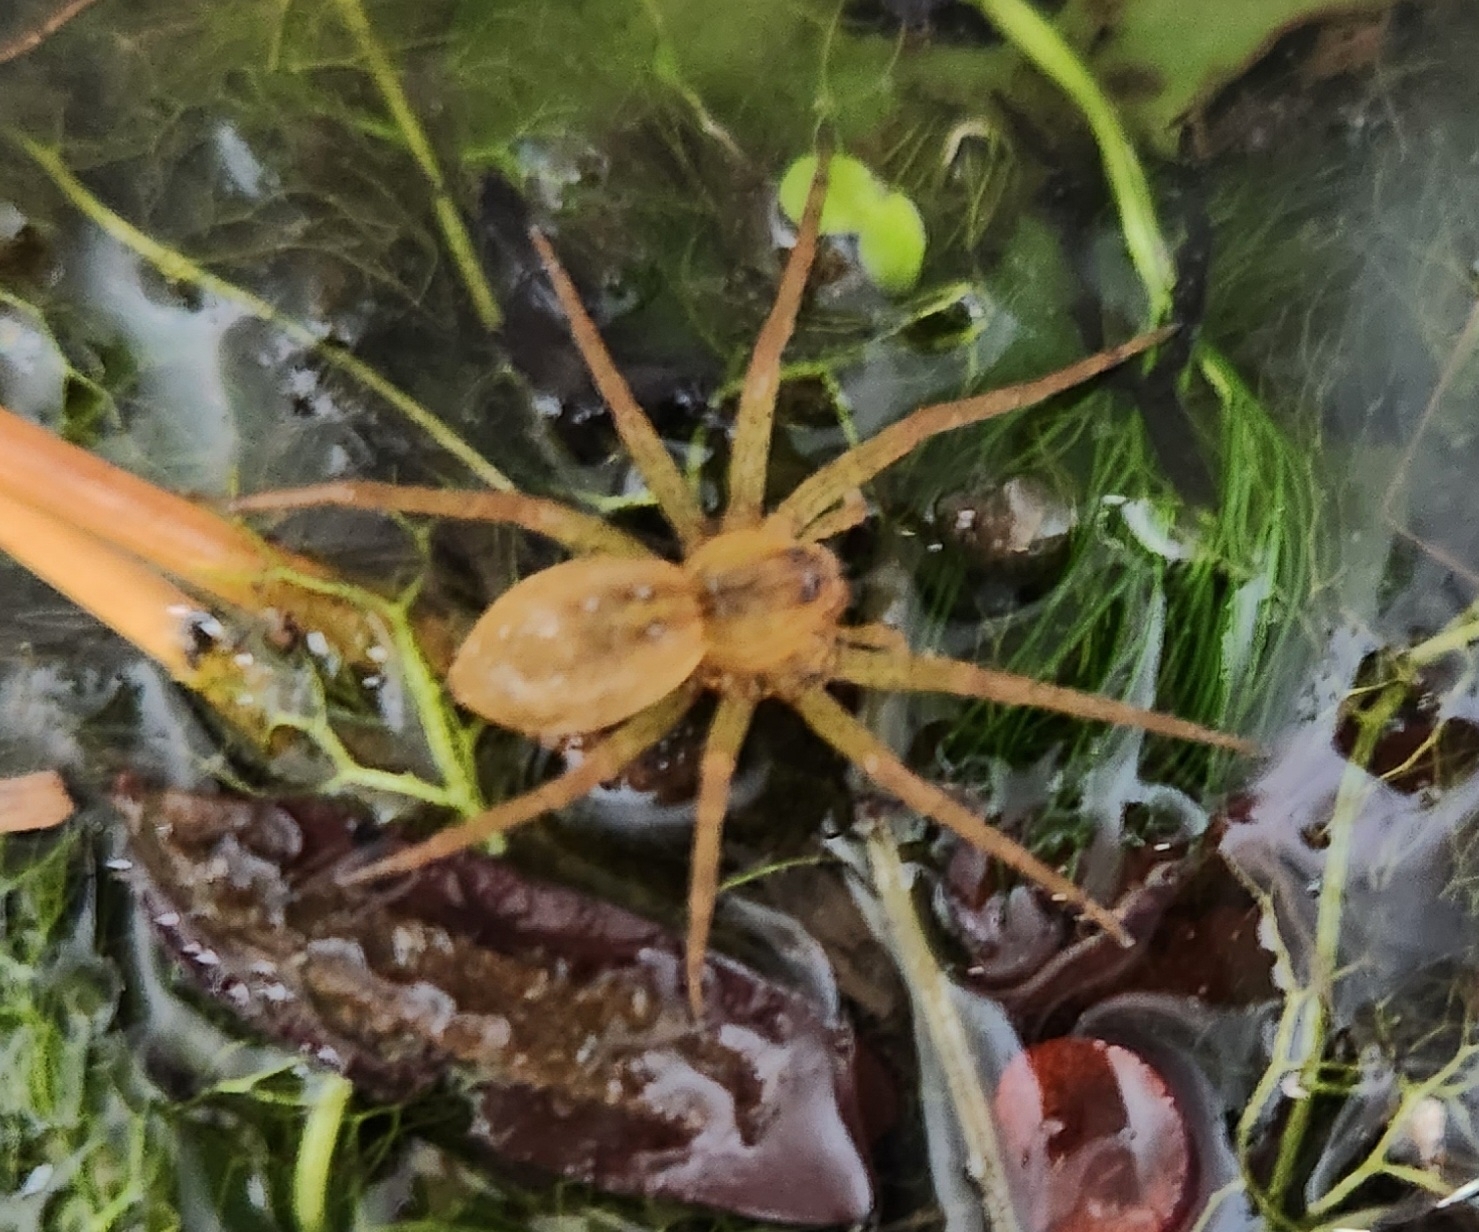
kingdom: Animalia
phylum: Arthropoda
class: Arachnida
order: Araneae
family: Pisauridae
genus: Dolomedes
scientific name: Dolomedes triton
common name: Six-spotted fishing spider
